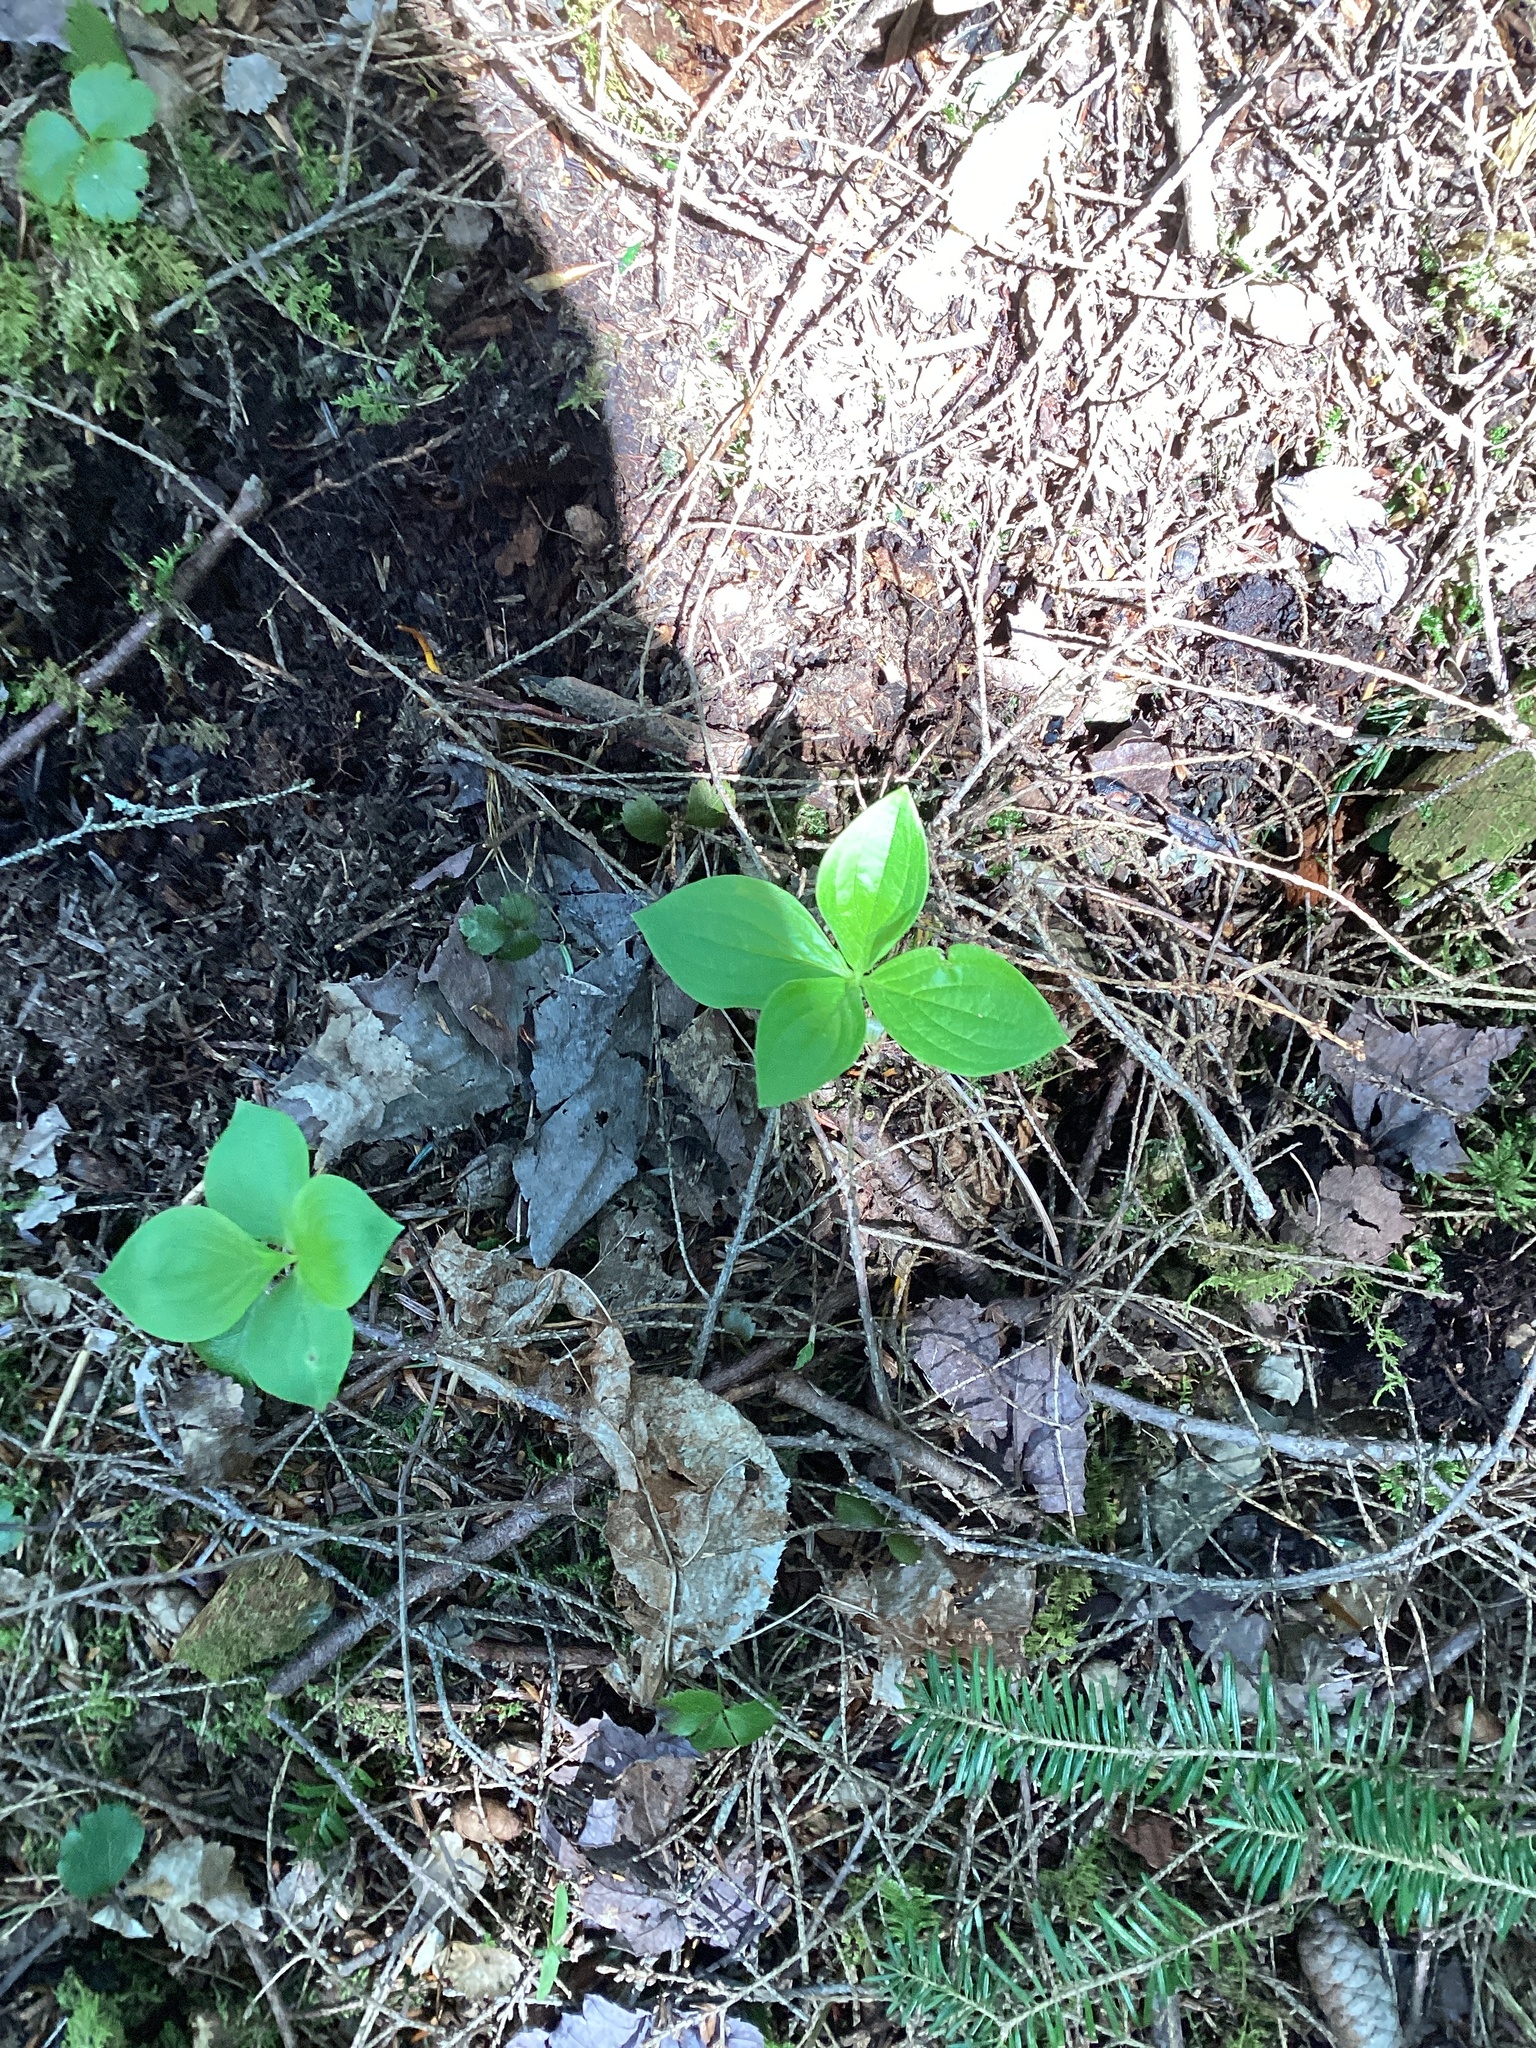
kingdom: Plantae
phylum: Tracheophyta
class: Magnoliopsida
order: Cornales
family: Cornaceae
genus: Cornus
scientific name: Cornus canadensis
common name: Creeping dogwood
